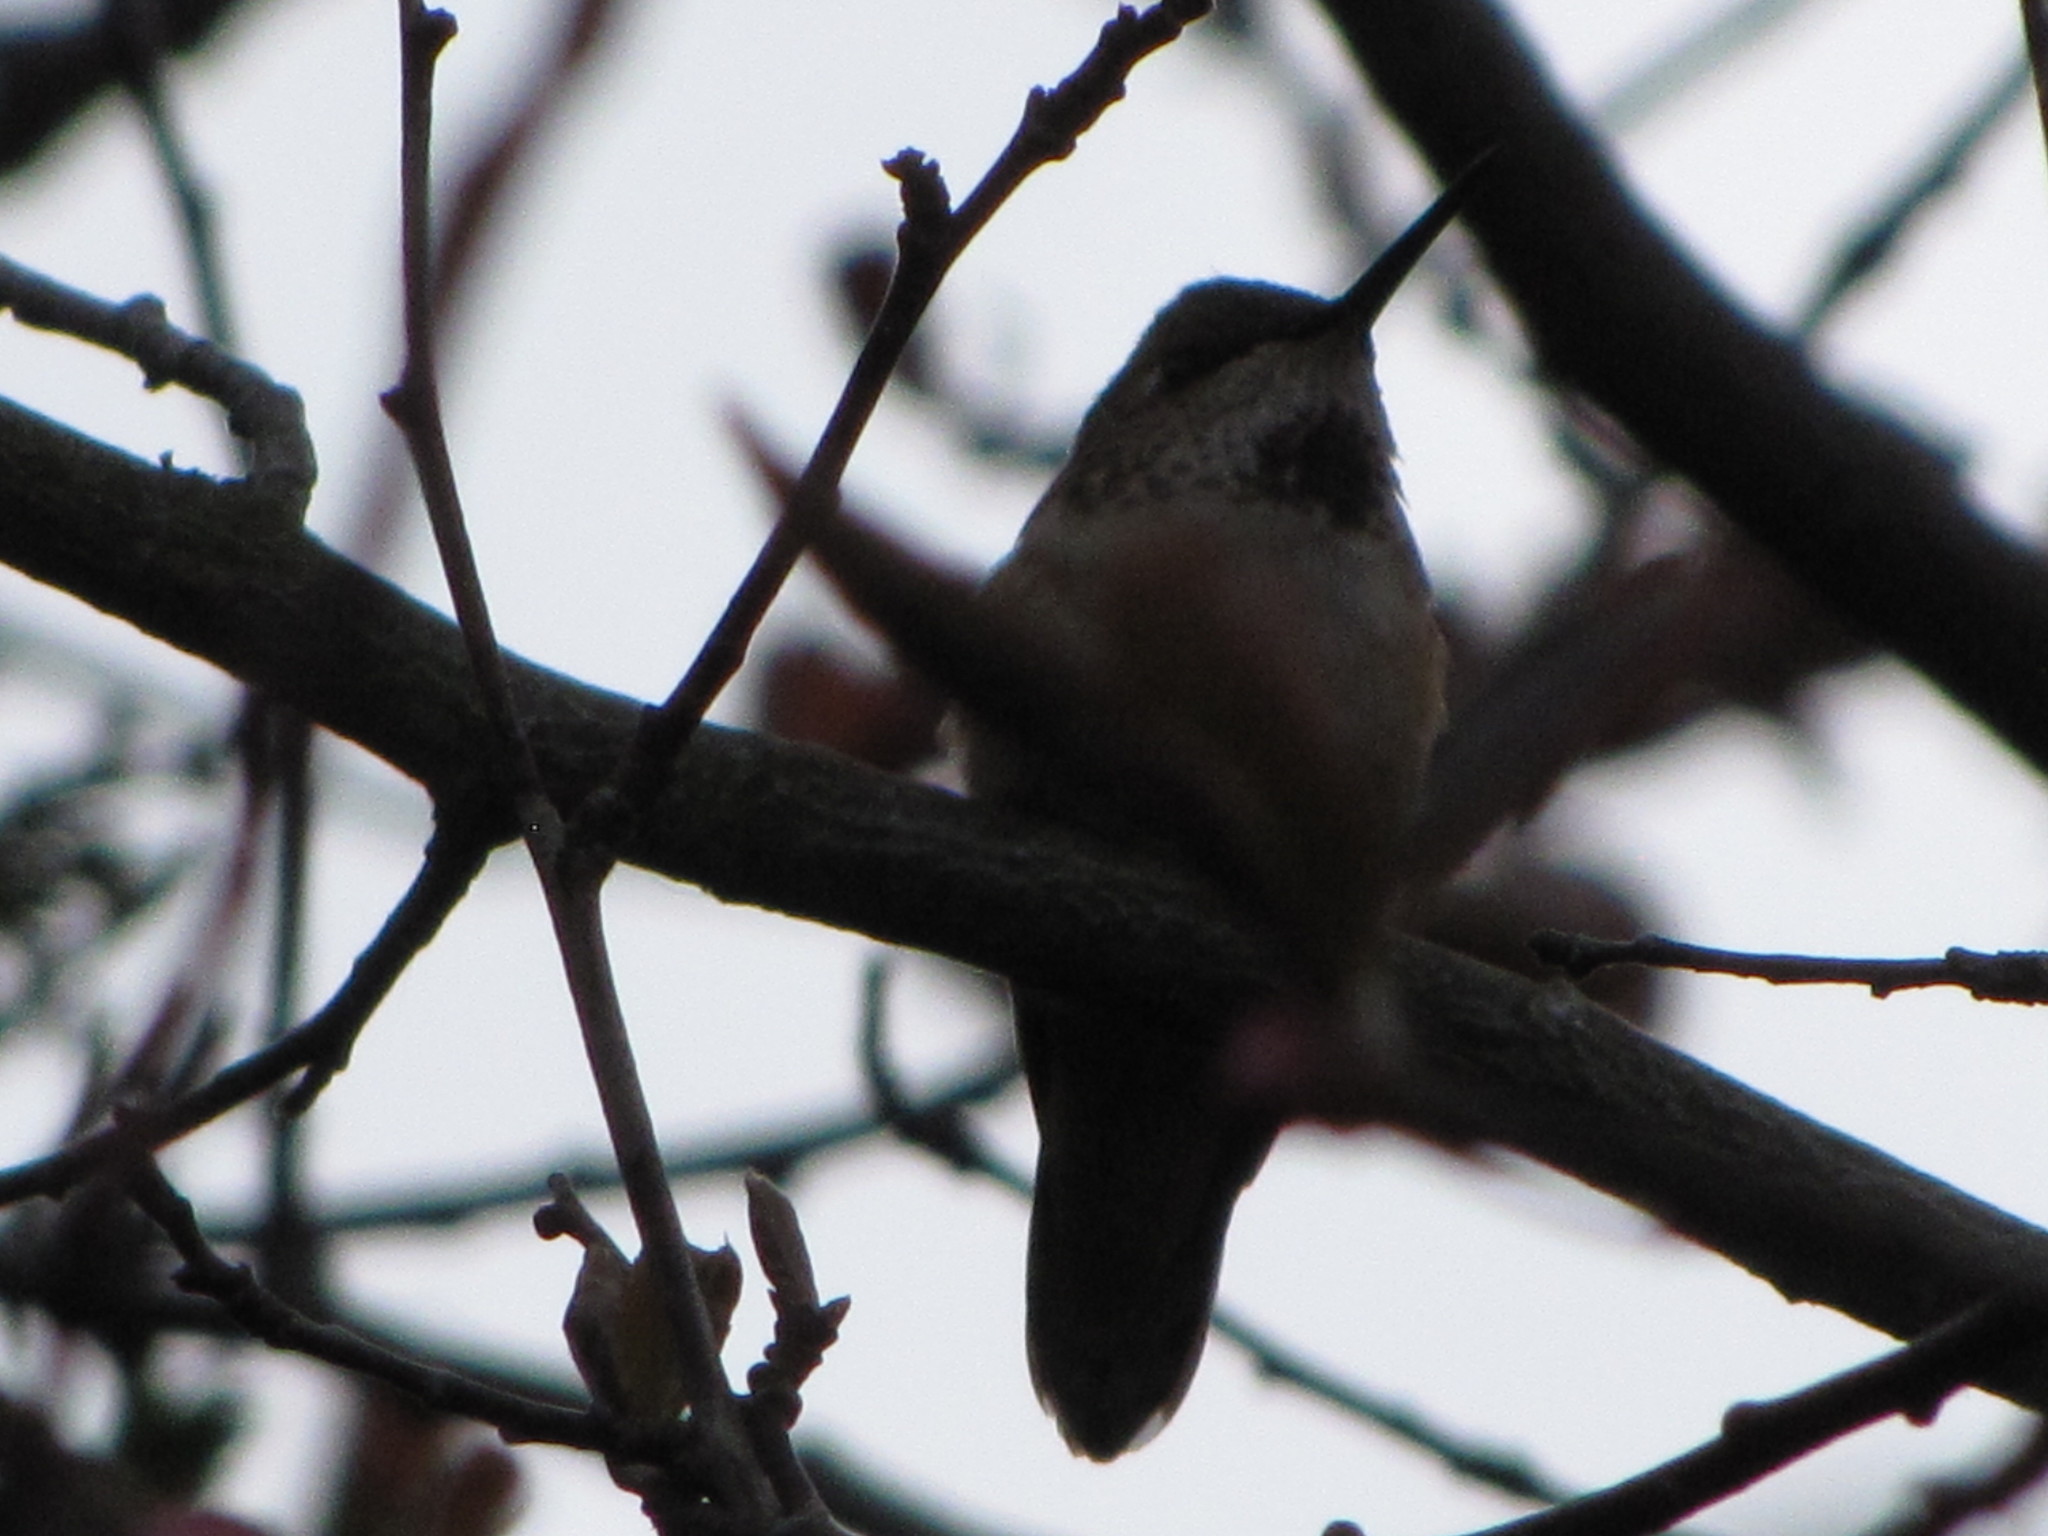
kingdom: Animalia
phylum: Chordata
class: Aves
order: Apodiformes
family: Trochilidae
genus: Selasphorus
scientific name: Selasphorus rufus
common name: Rufous hummingbird
